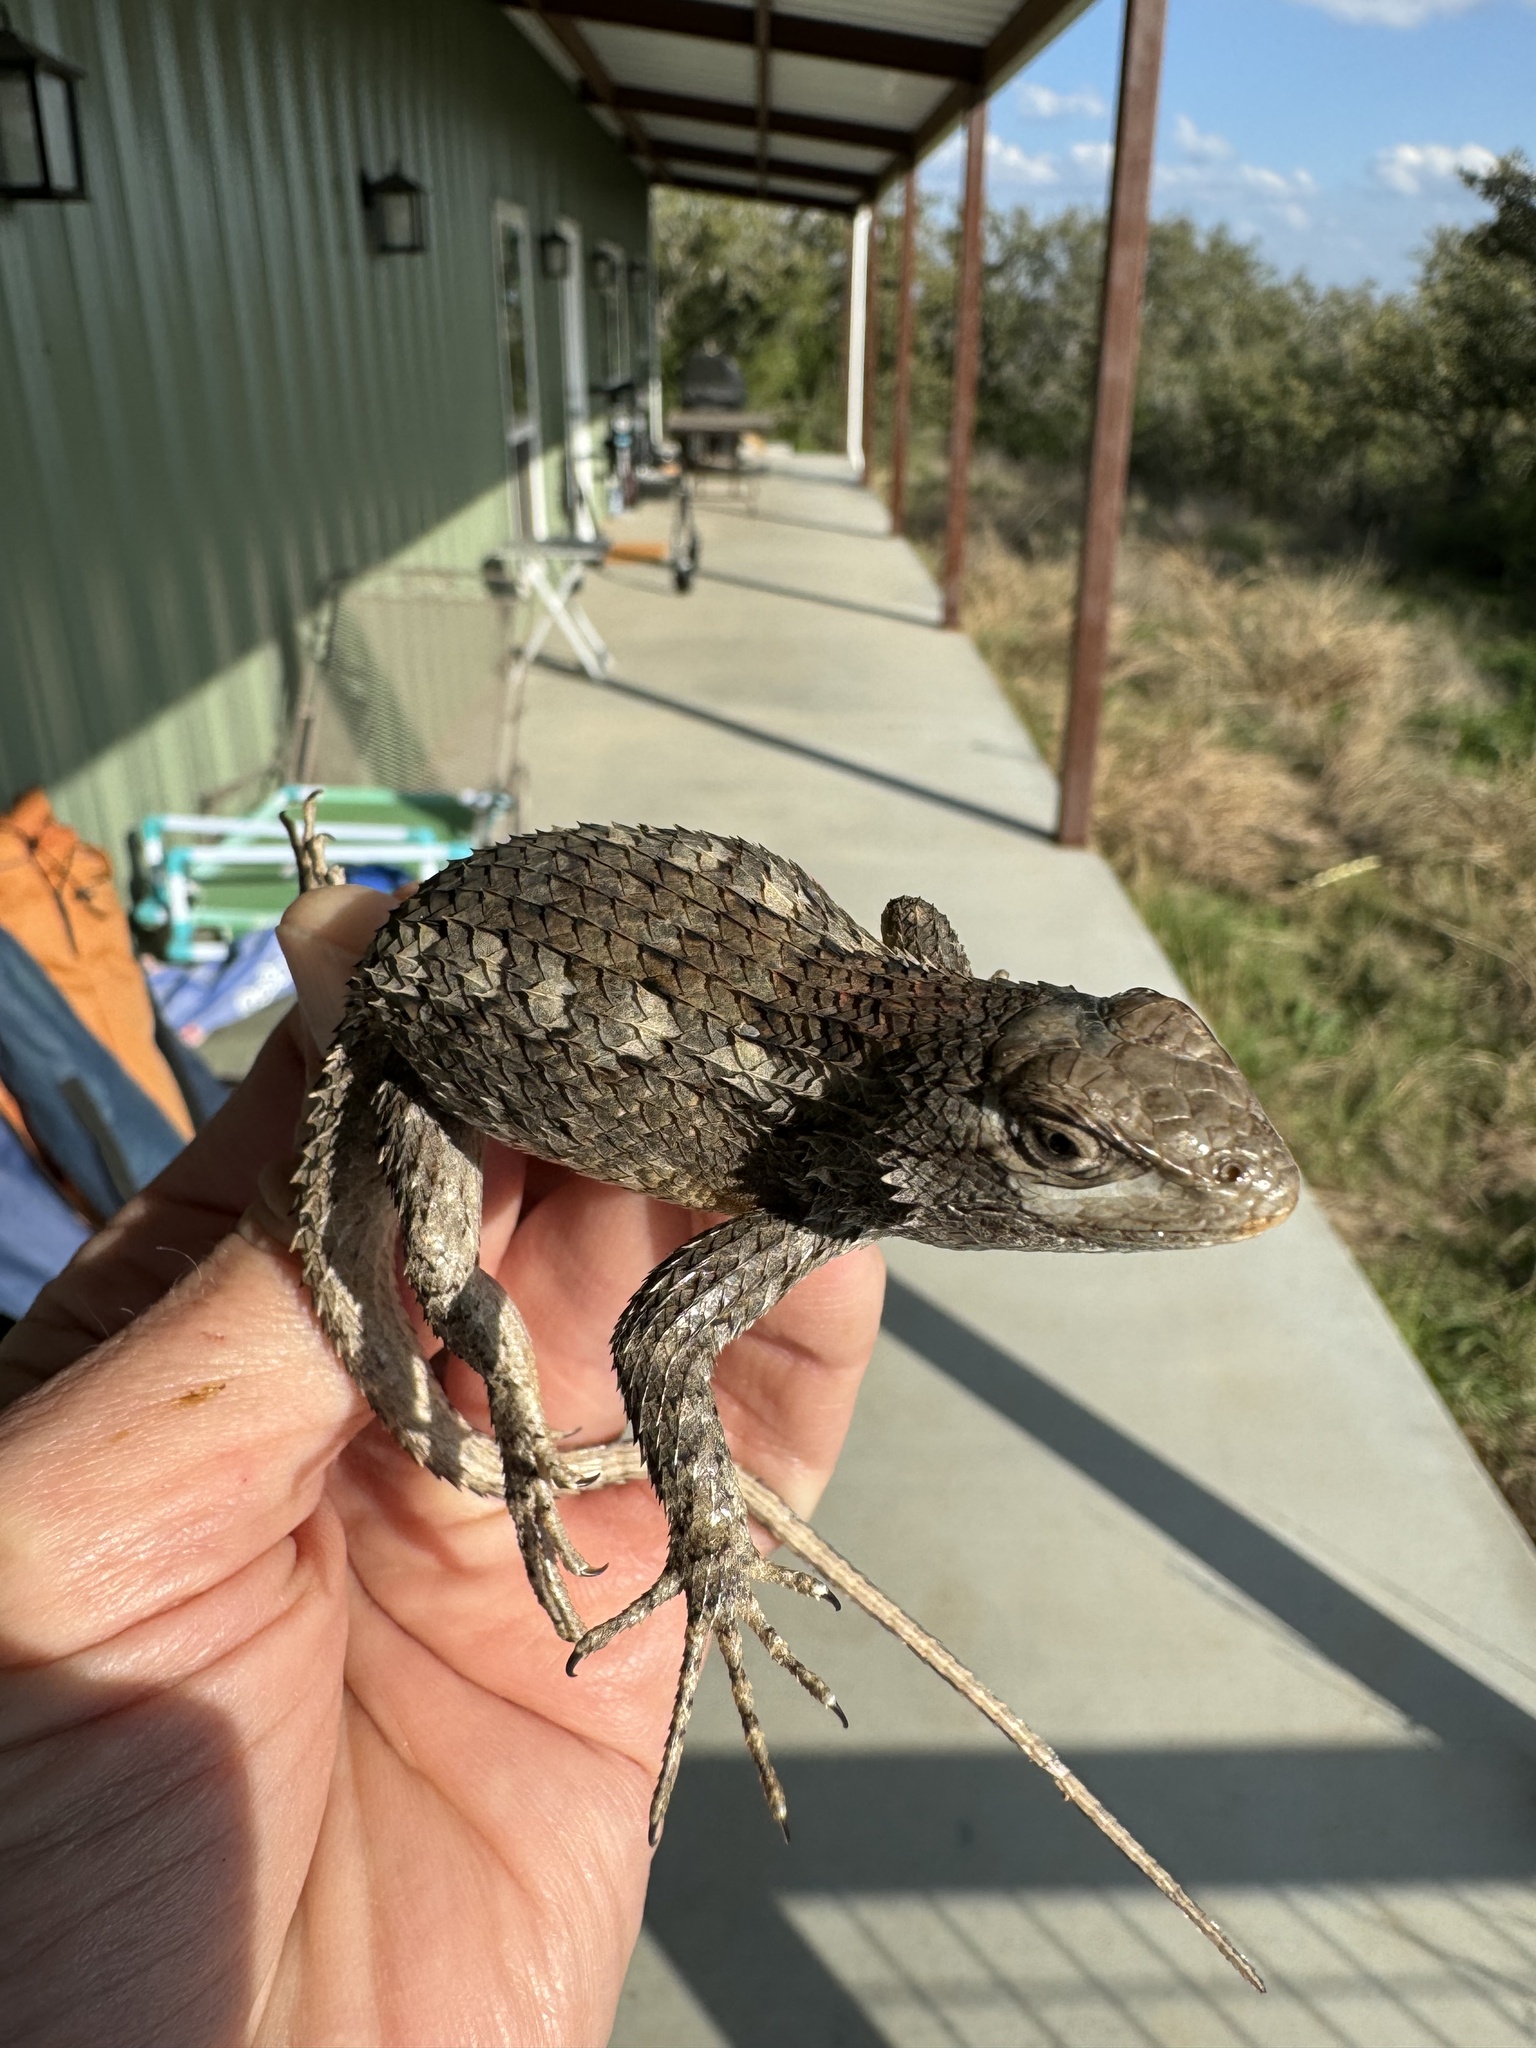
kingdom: Animalia
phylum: Chordata
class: Squamata
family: Phrynosomatidae
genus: Sceloporus
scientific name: Sceloporus olivaceus
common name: Texas spiny lizard
